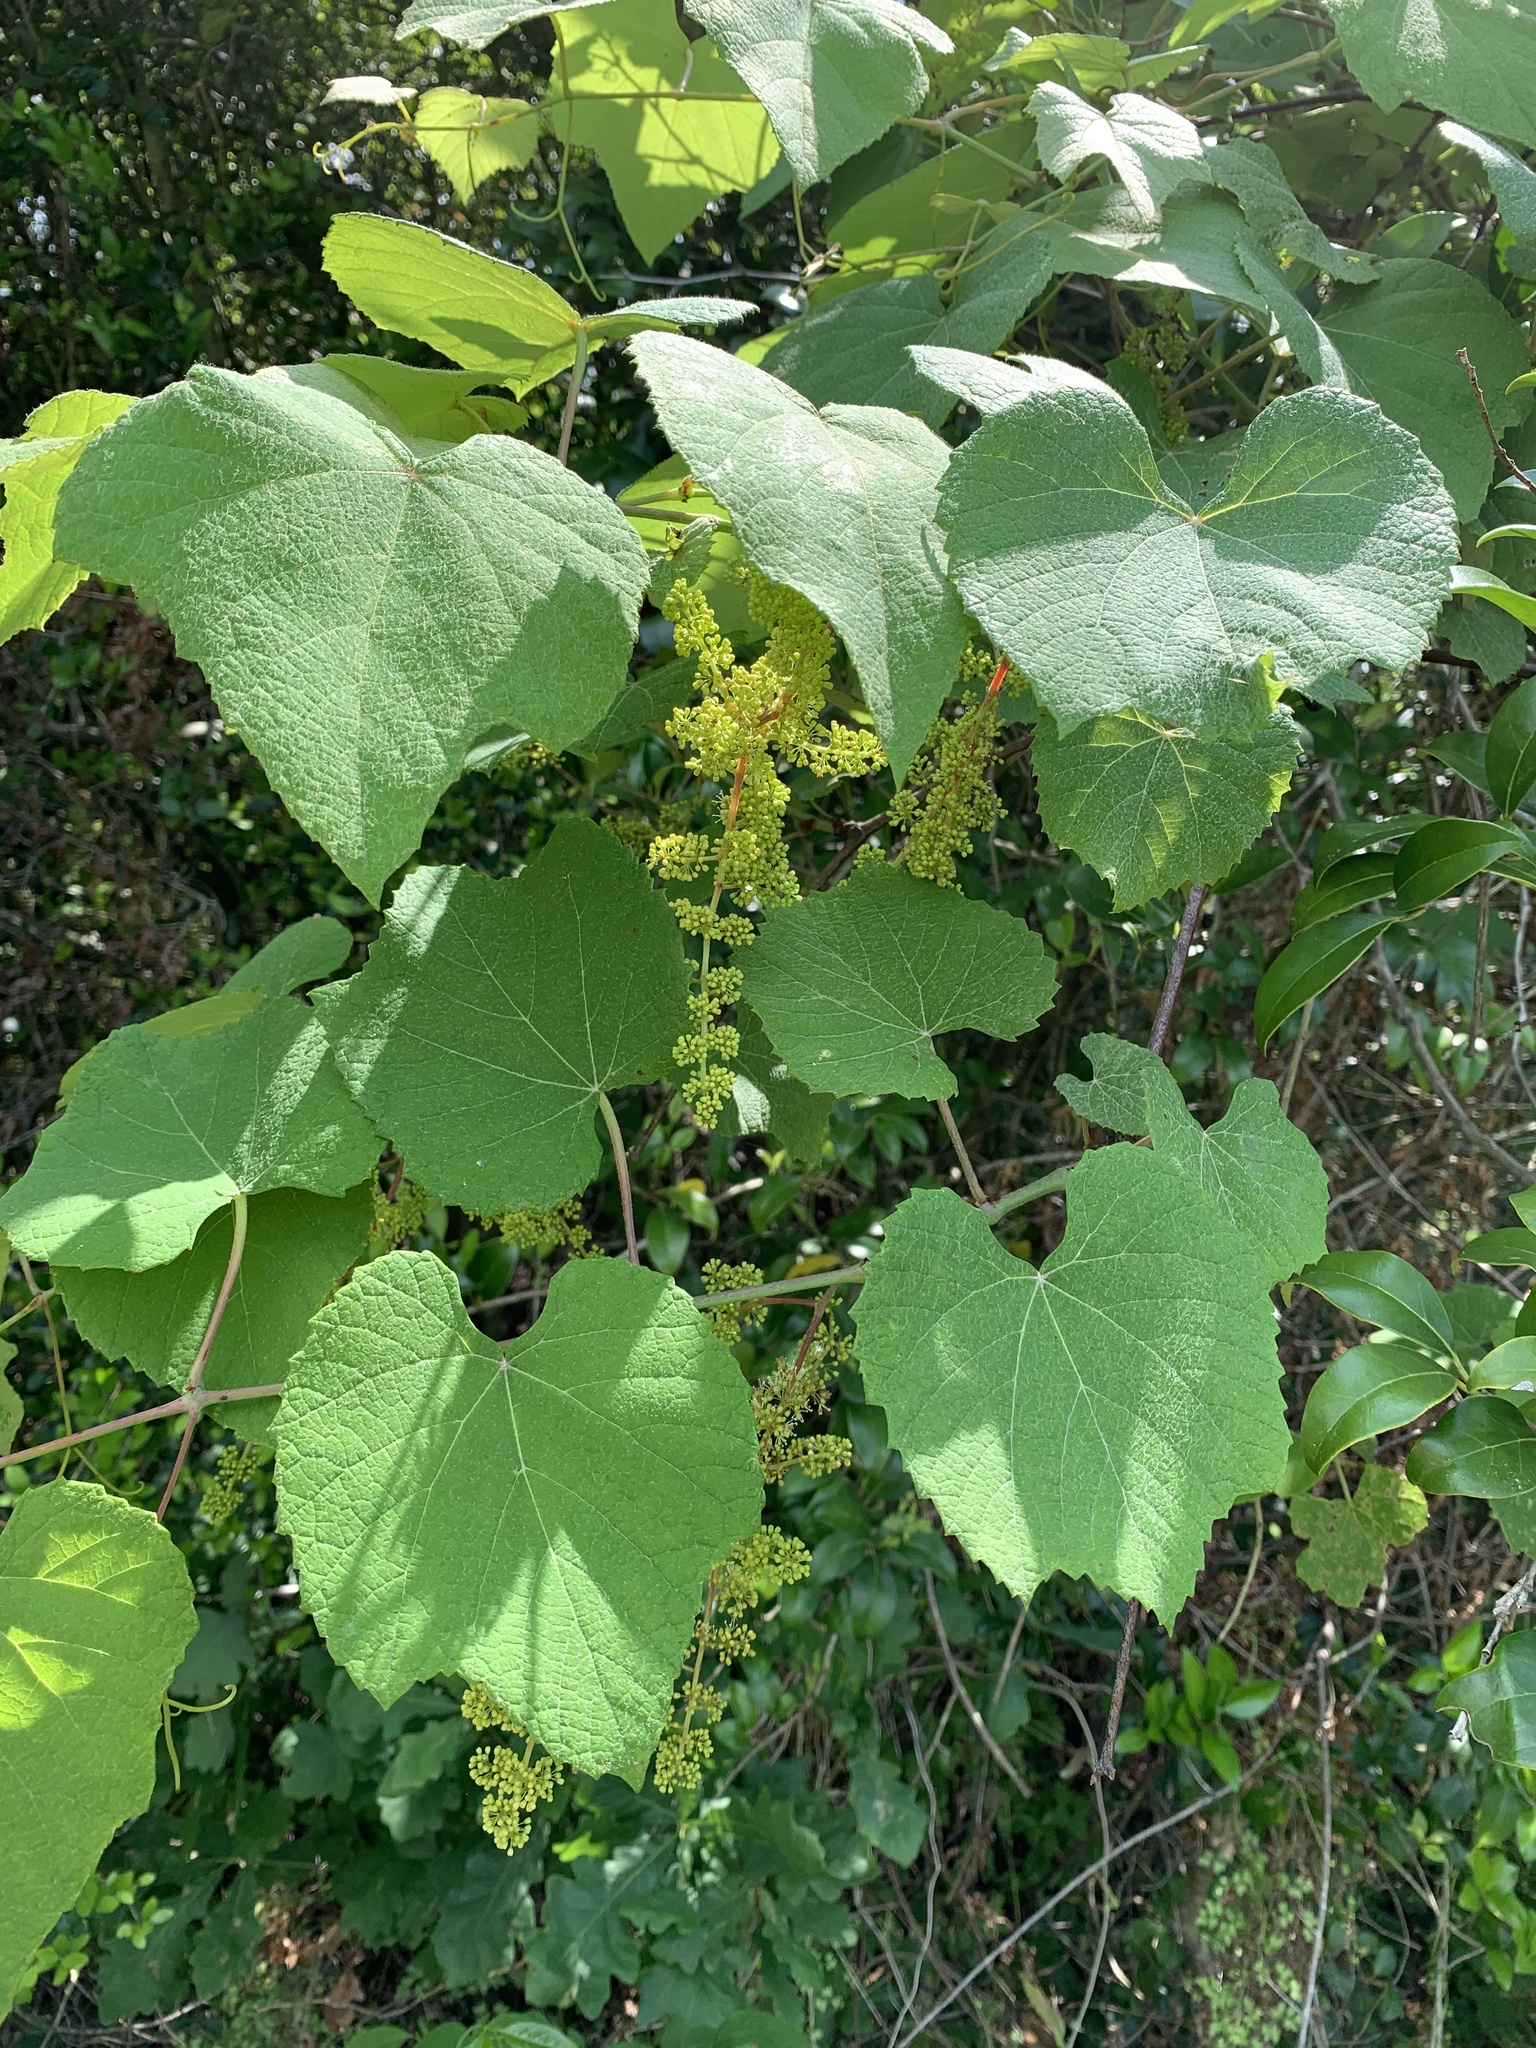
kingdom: Plantae
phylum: Tracheophyta
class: Magnoliopsida
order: Vitales
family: Vitaceae
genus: Vitis
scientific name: Vitis cinerea
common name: Ashy grape
